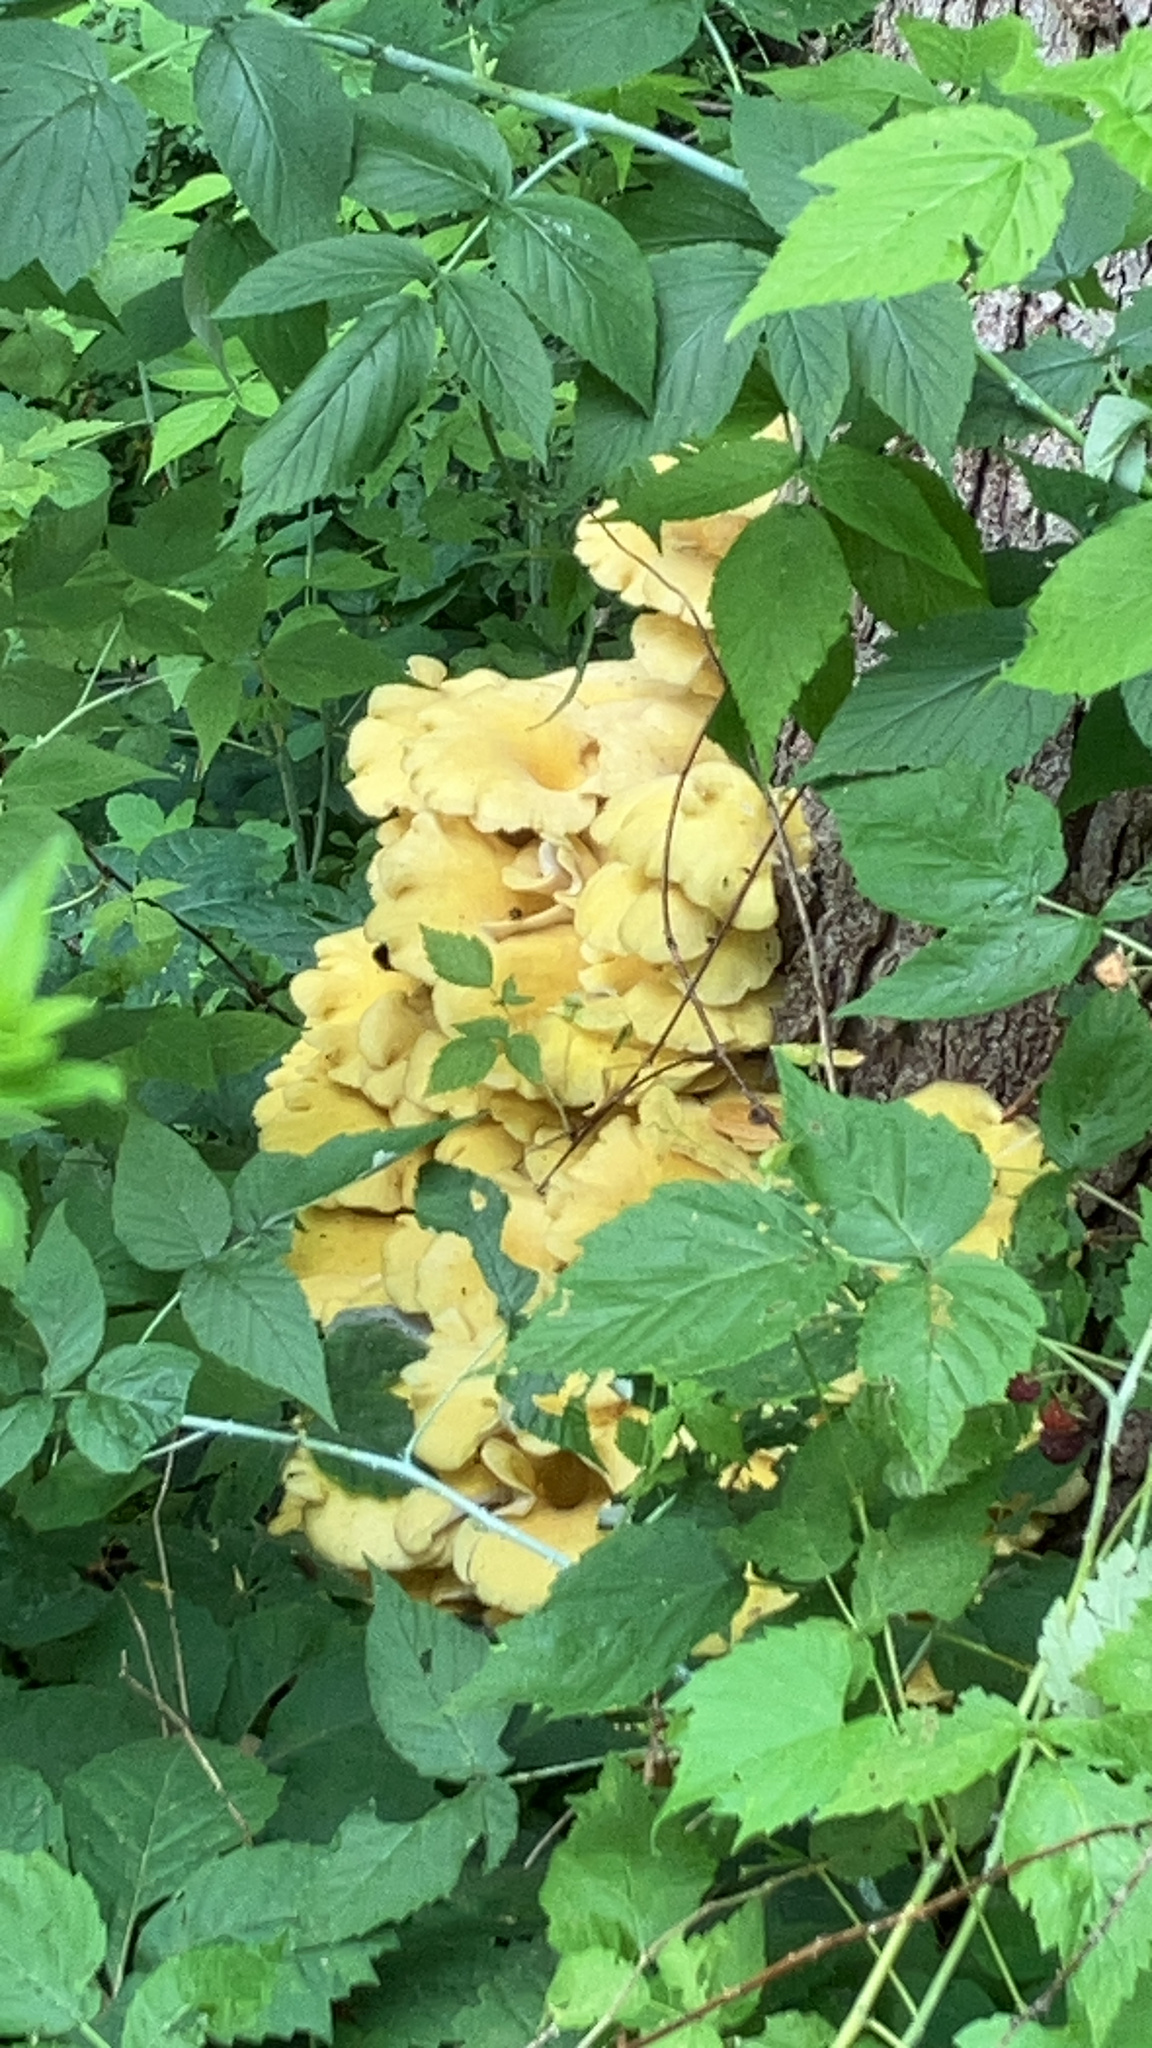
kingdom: Fungi
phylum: Basidiomycota
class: Agaricomycetes
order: Agaricales
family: Pleurotaceae
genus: Pleurotus
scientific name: Pleurotus citrinopileatus
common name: Golden oyster mushroom
